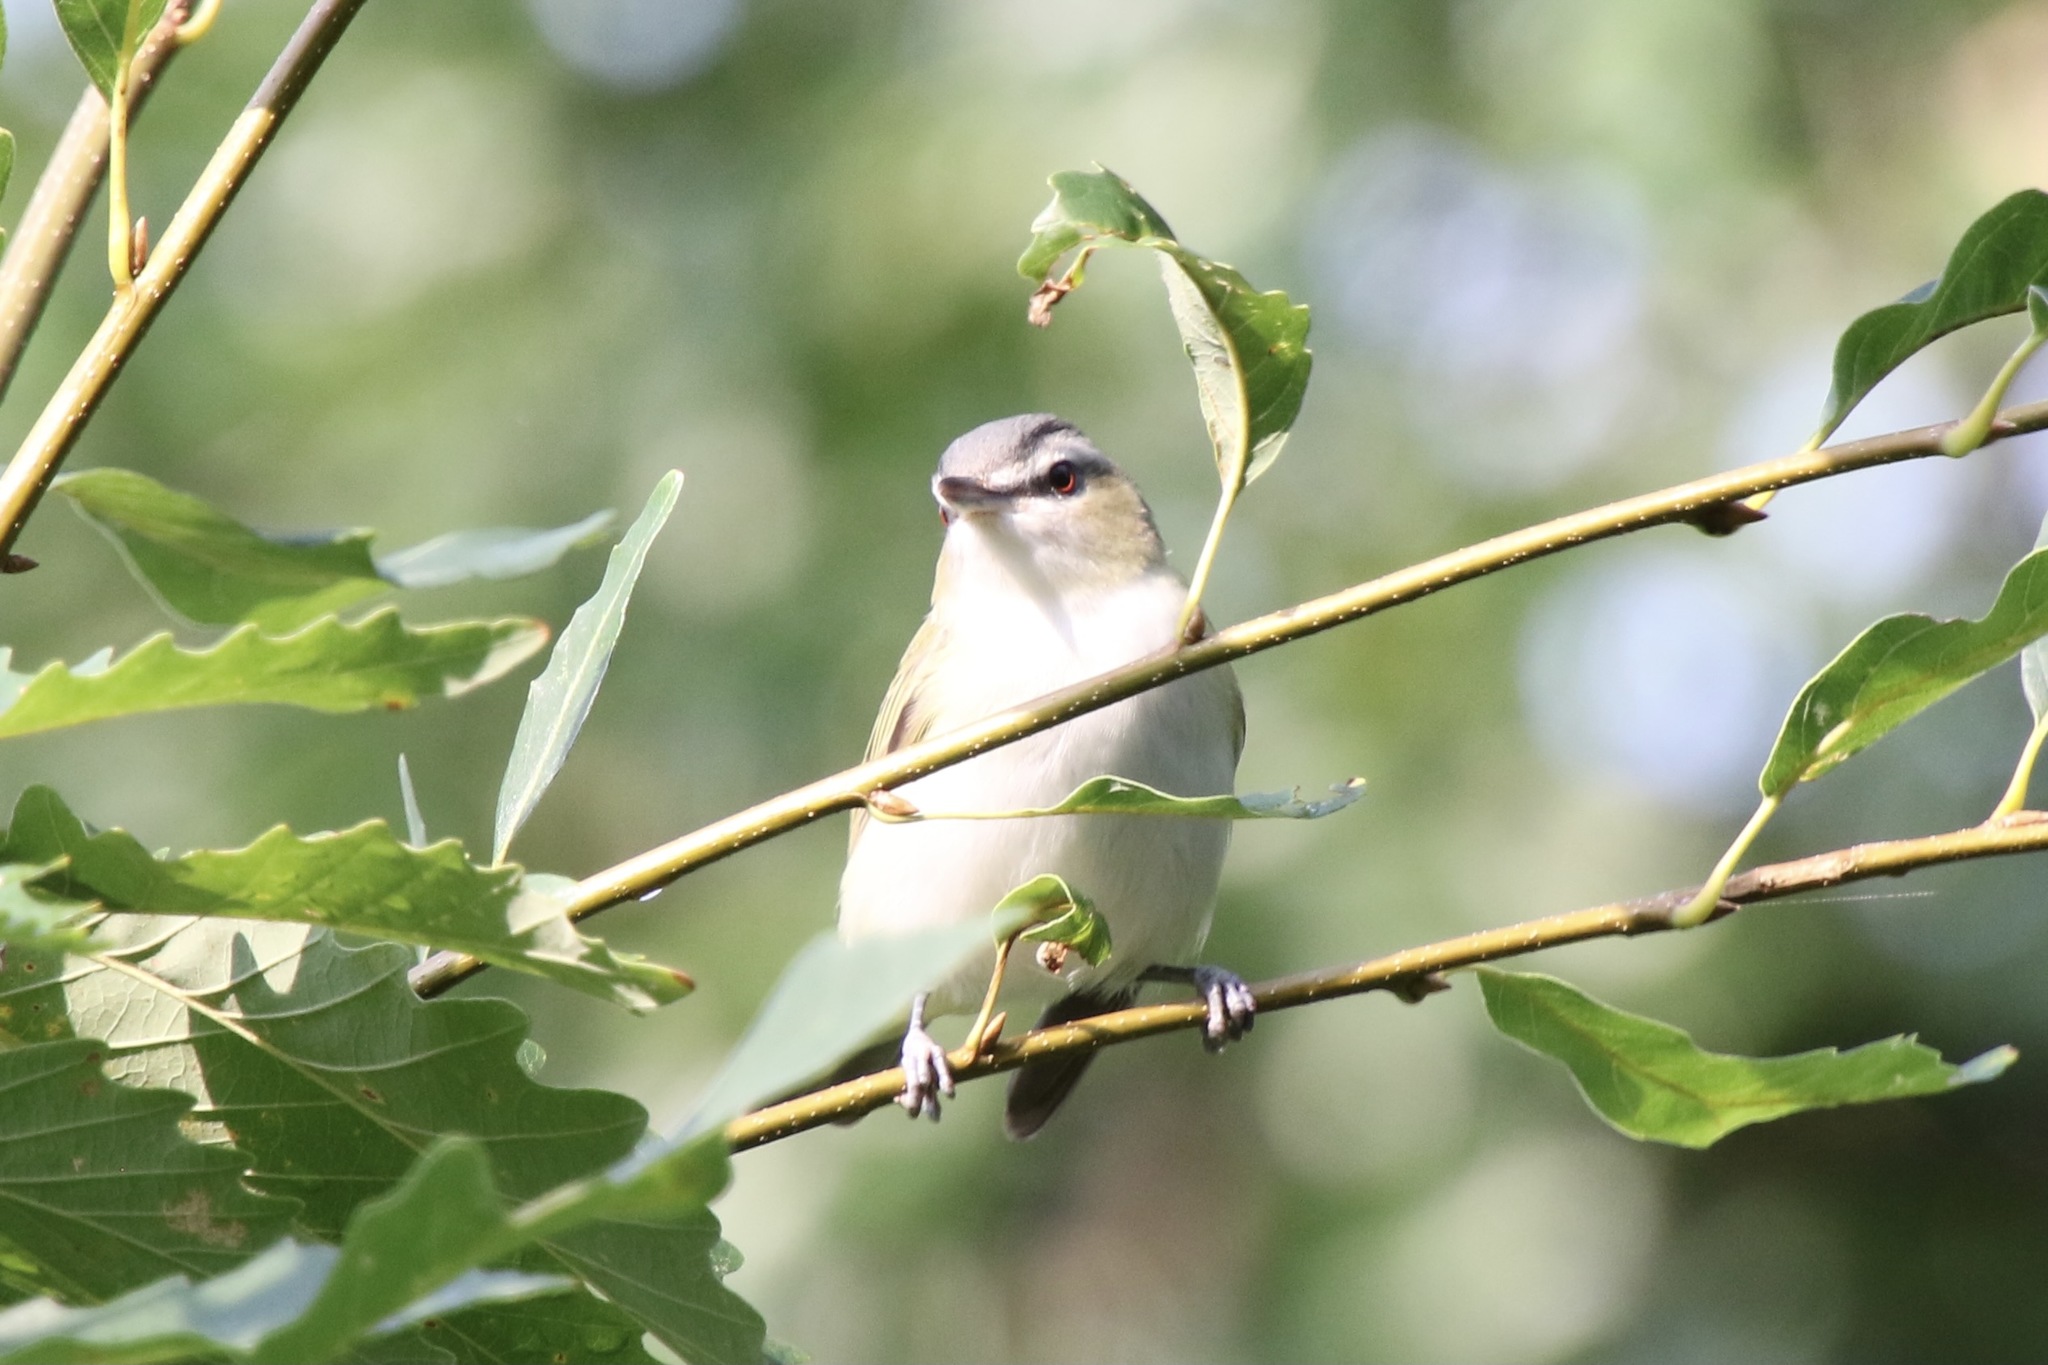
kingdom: Animalia
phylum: Chordata
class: Aves
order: Passeriformes
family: Vireonidae
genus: Vireo
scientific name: Vireo olivaceus
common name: Red-eyed vireo
